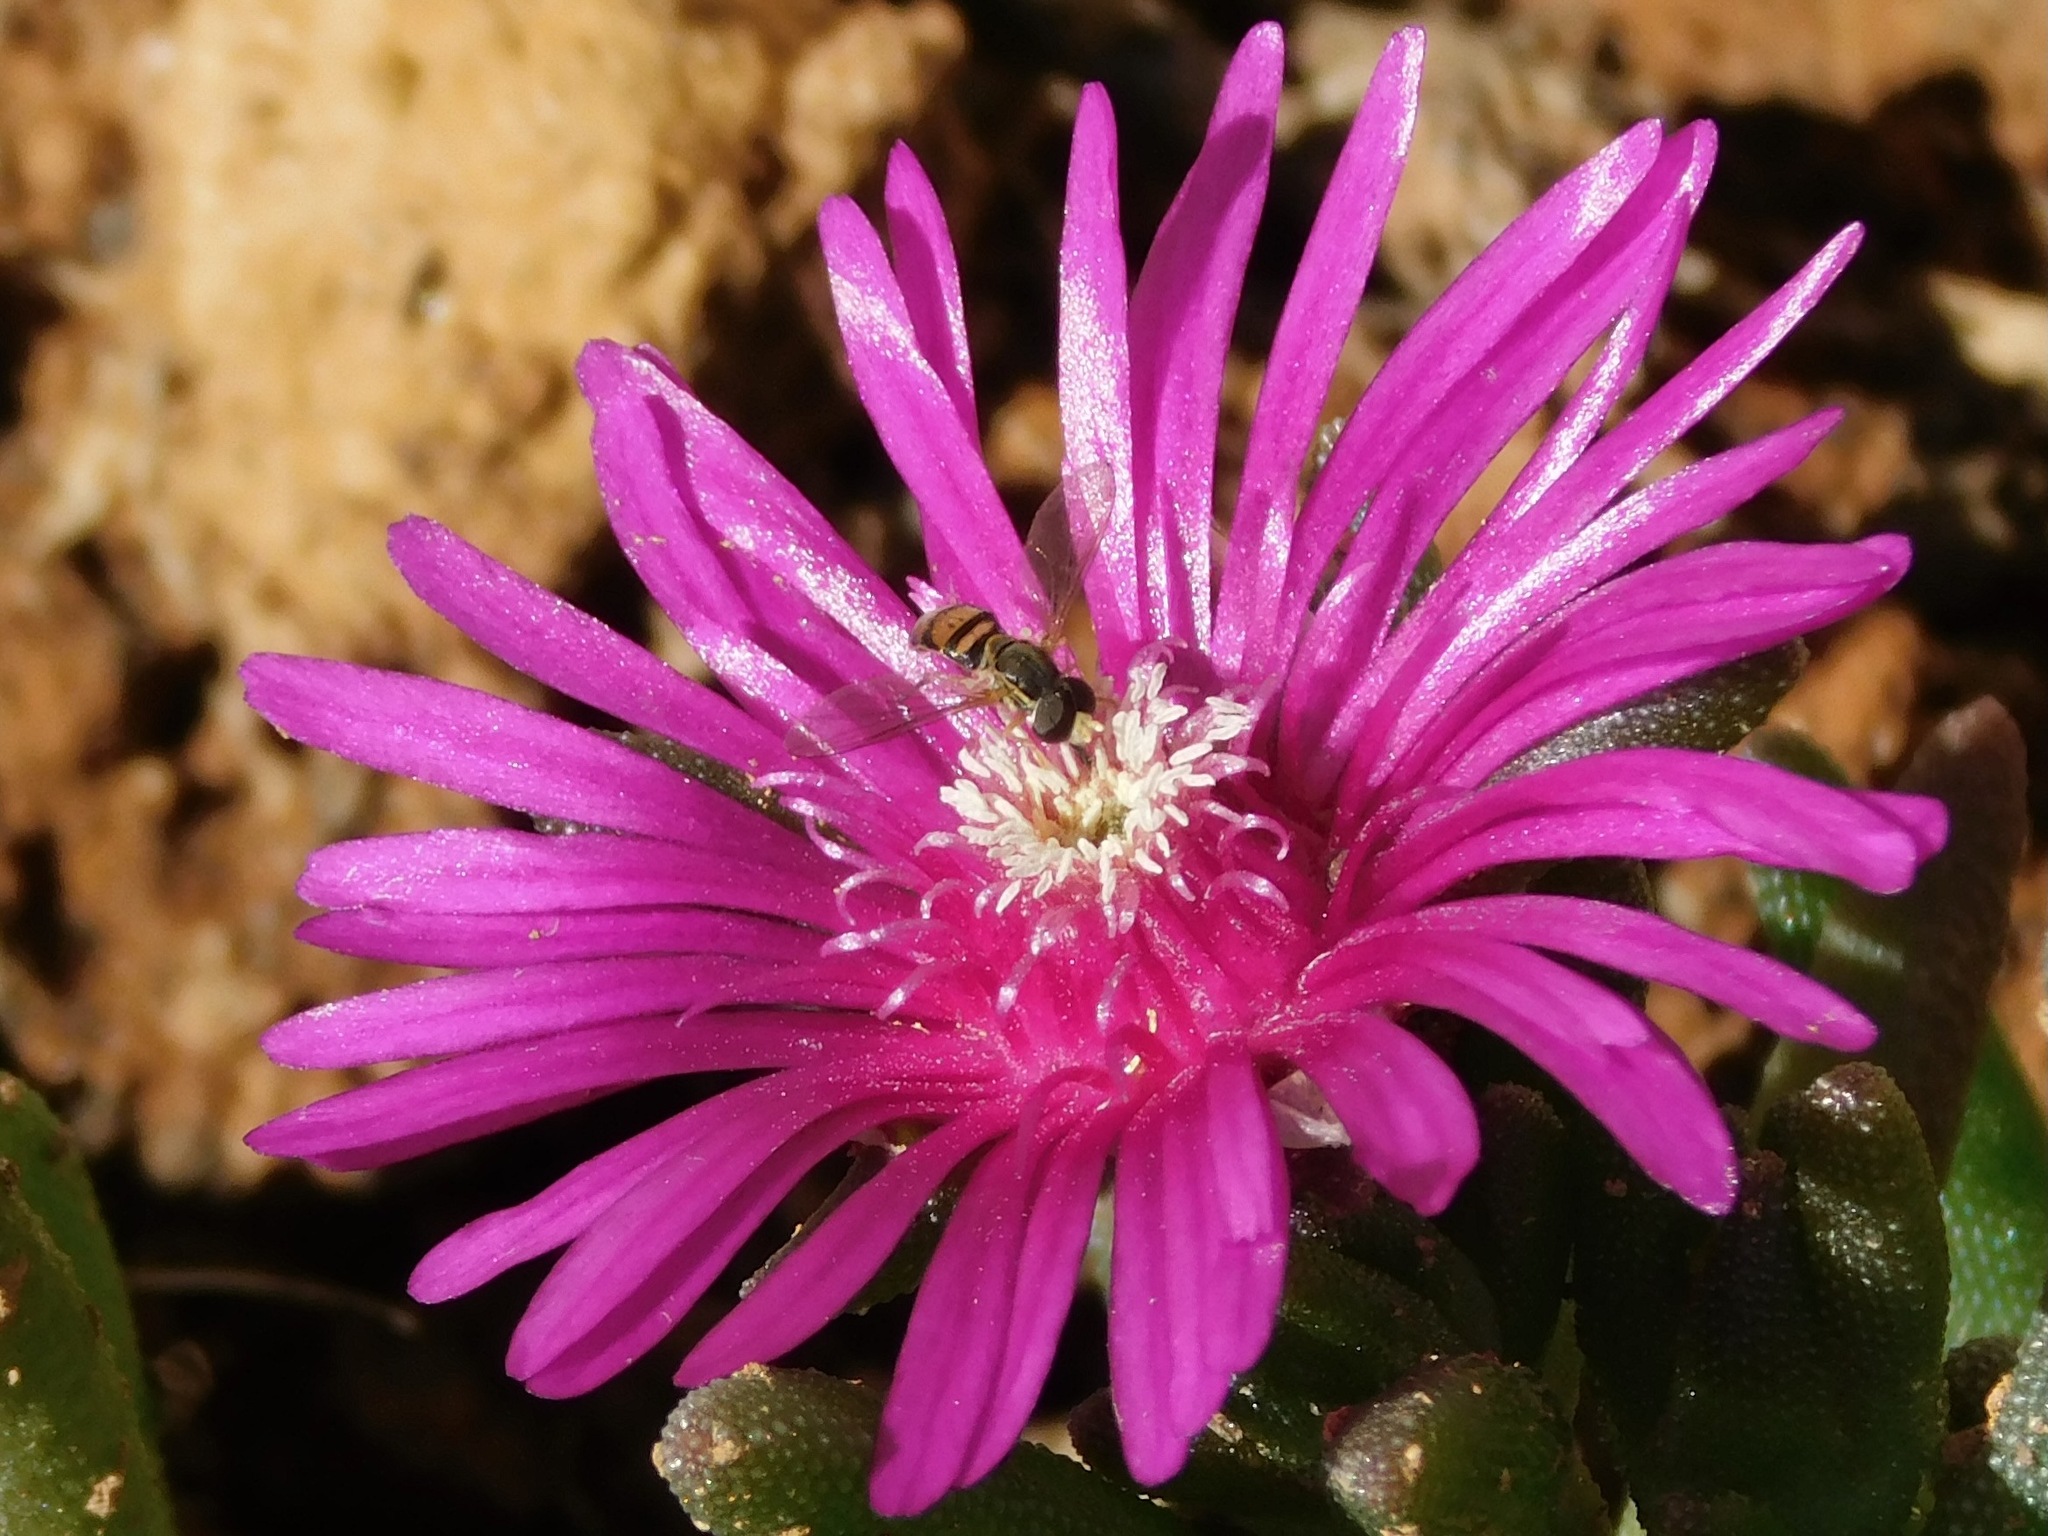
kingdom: Animalia
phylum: Arthropoda
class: Insecta
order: Diptera
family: Syrphidae
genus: Toxomerus
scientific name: Toxomerus marginatus
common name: Syrphid fly
